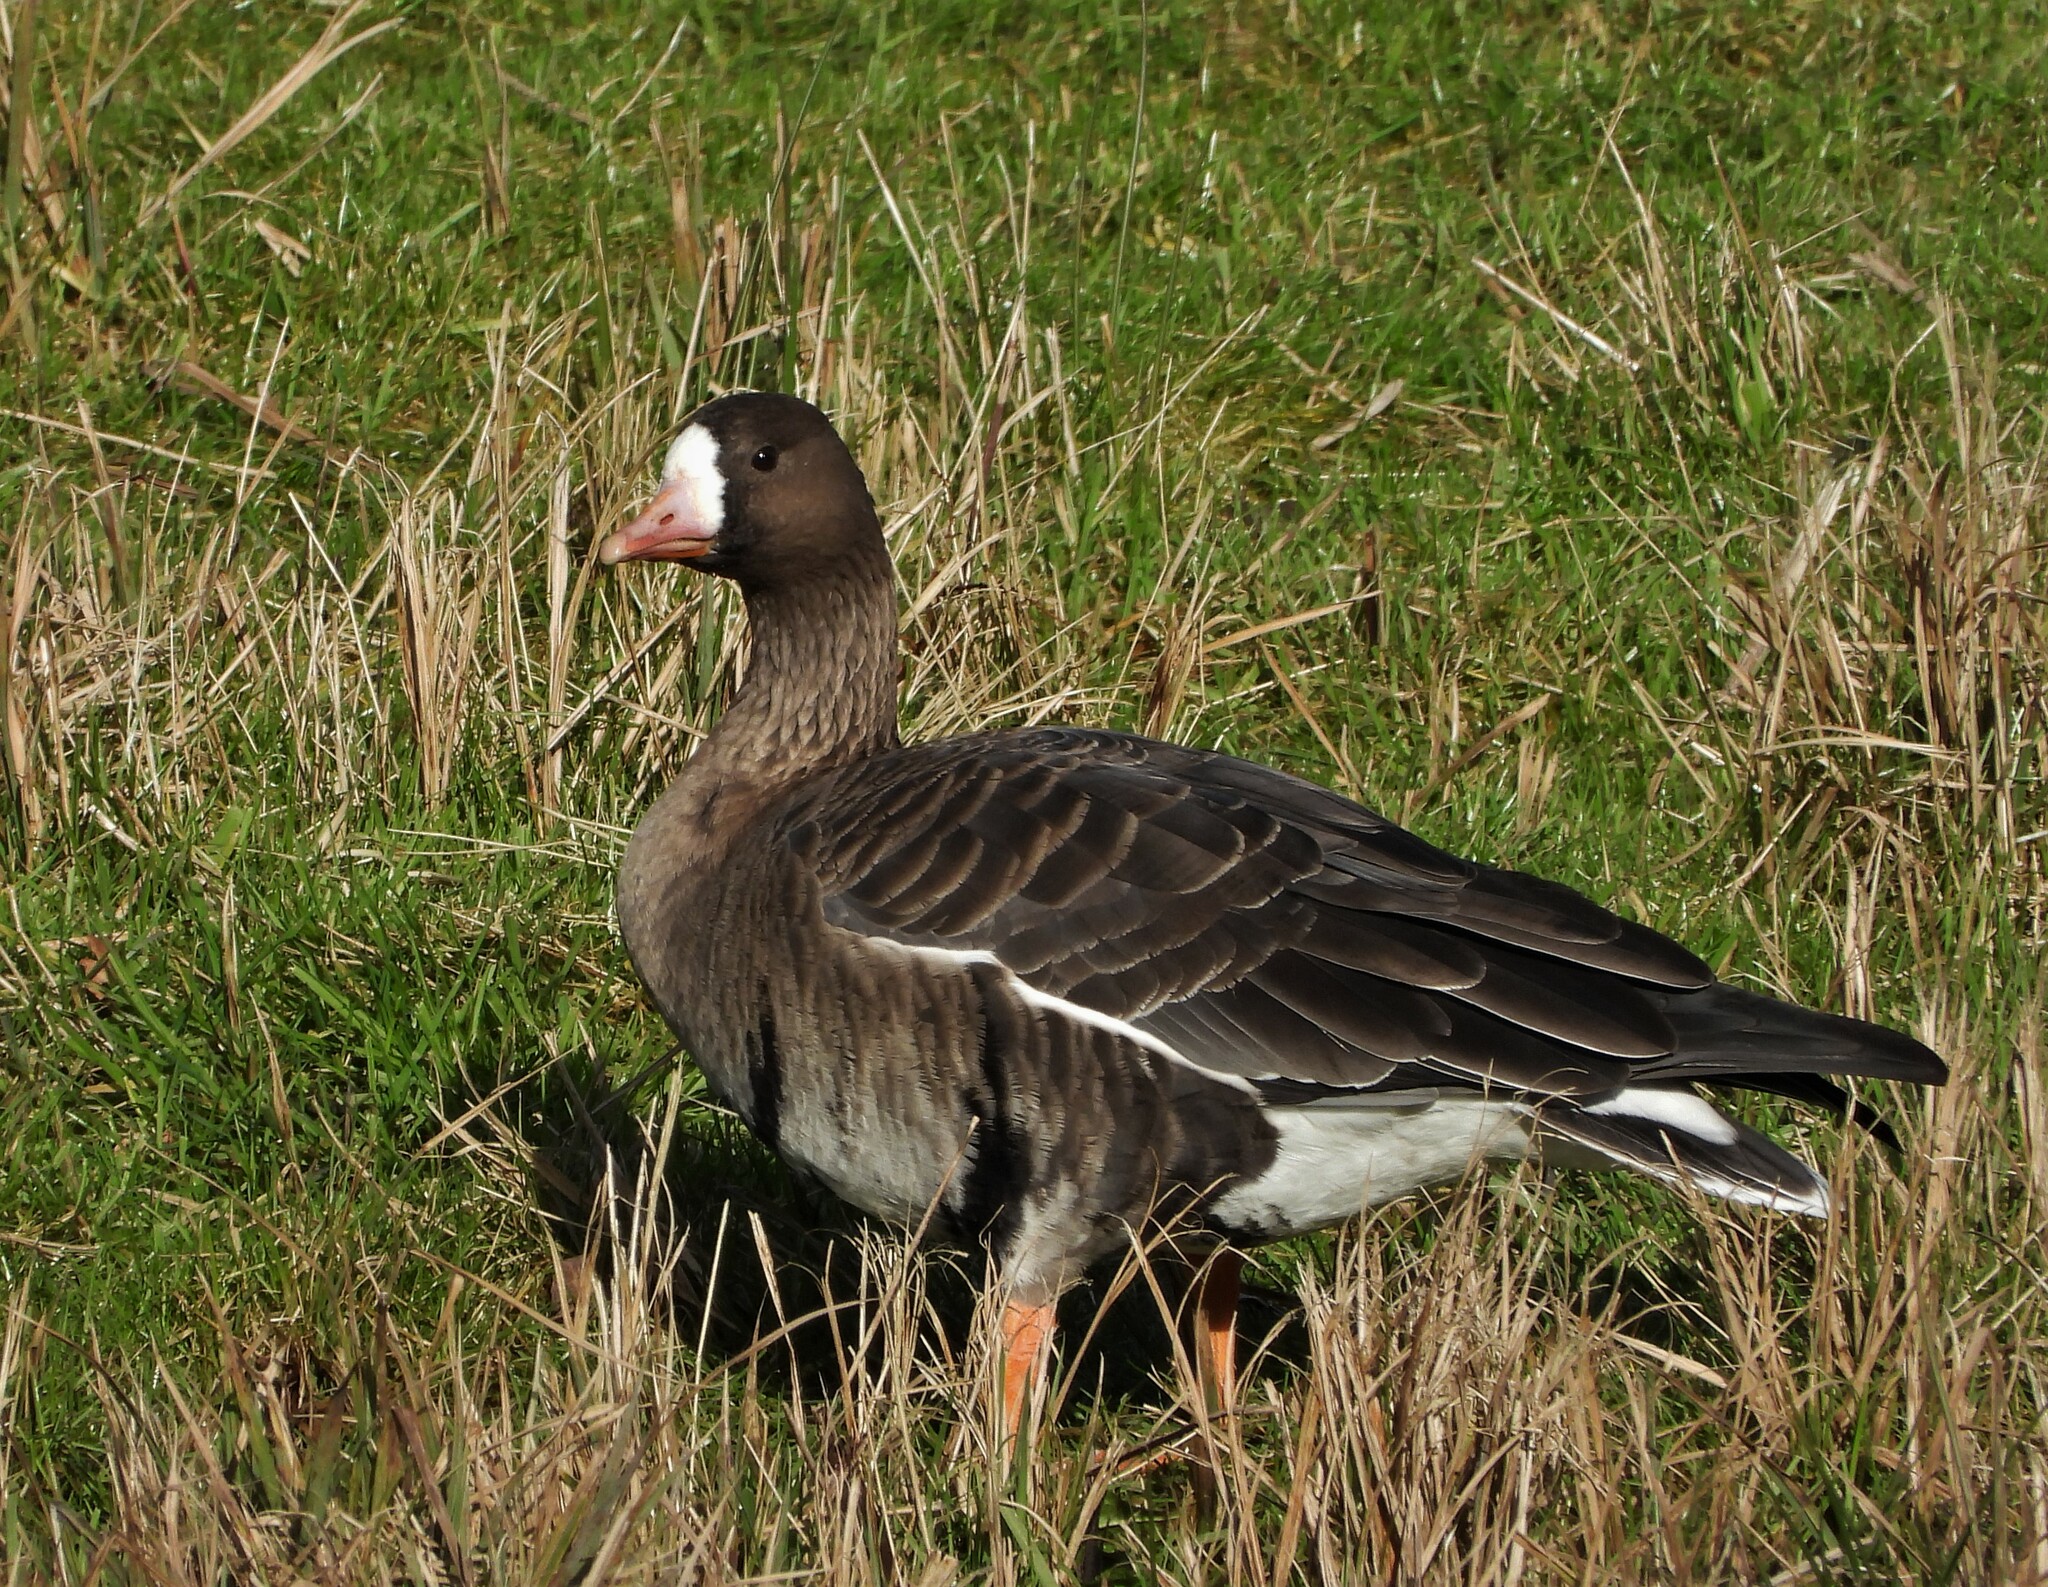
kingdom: Animalia
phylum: Chordata
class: Aves
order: Anseriformes
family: Anatidae
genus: Anser
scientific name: Anser albifrons
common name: Greater white-fronted goose
